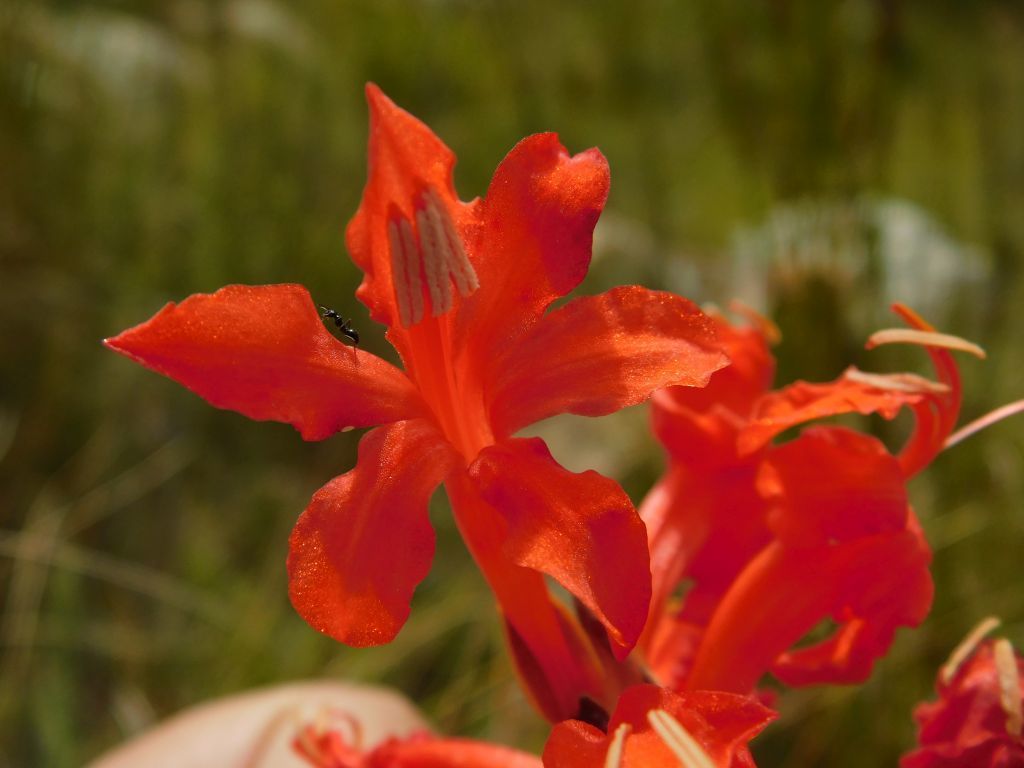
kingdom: Plantae
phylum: Tracheophyta
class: Liliopsida
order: Asparagales
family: Iridaceae
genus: Tritoniopsis
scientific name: Tritoniopsis triticea
